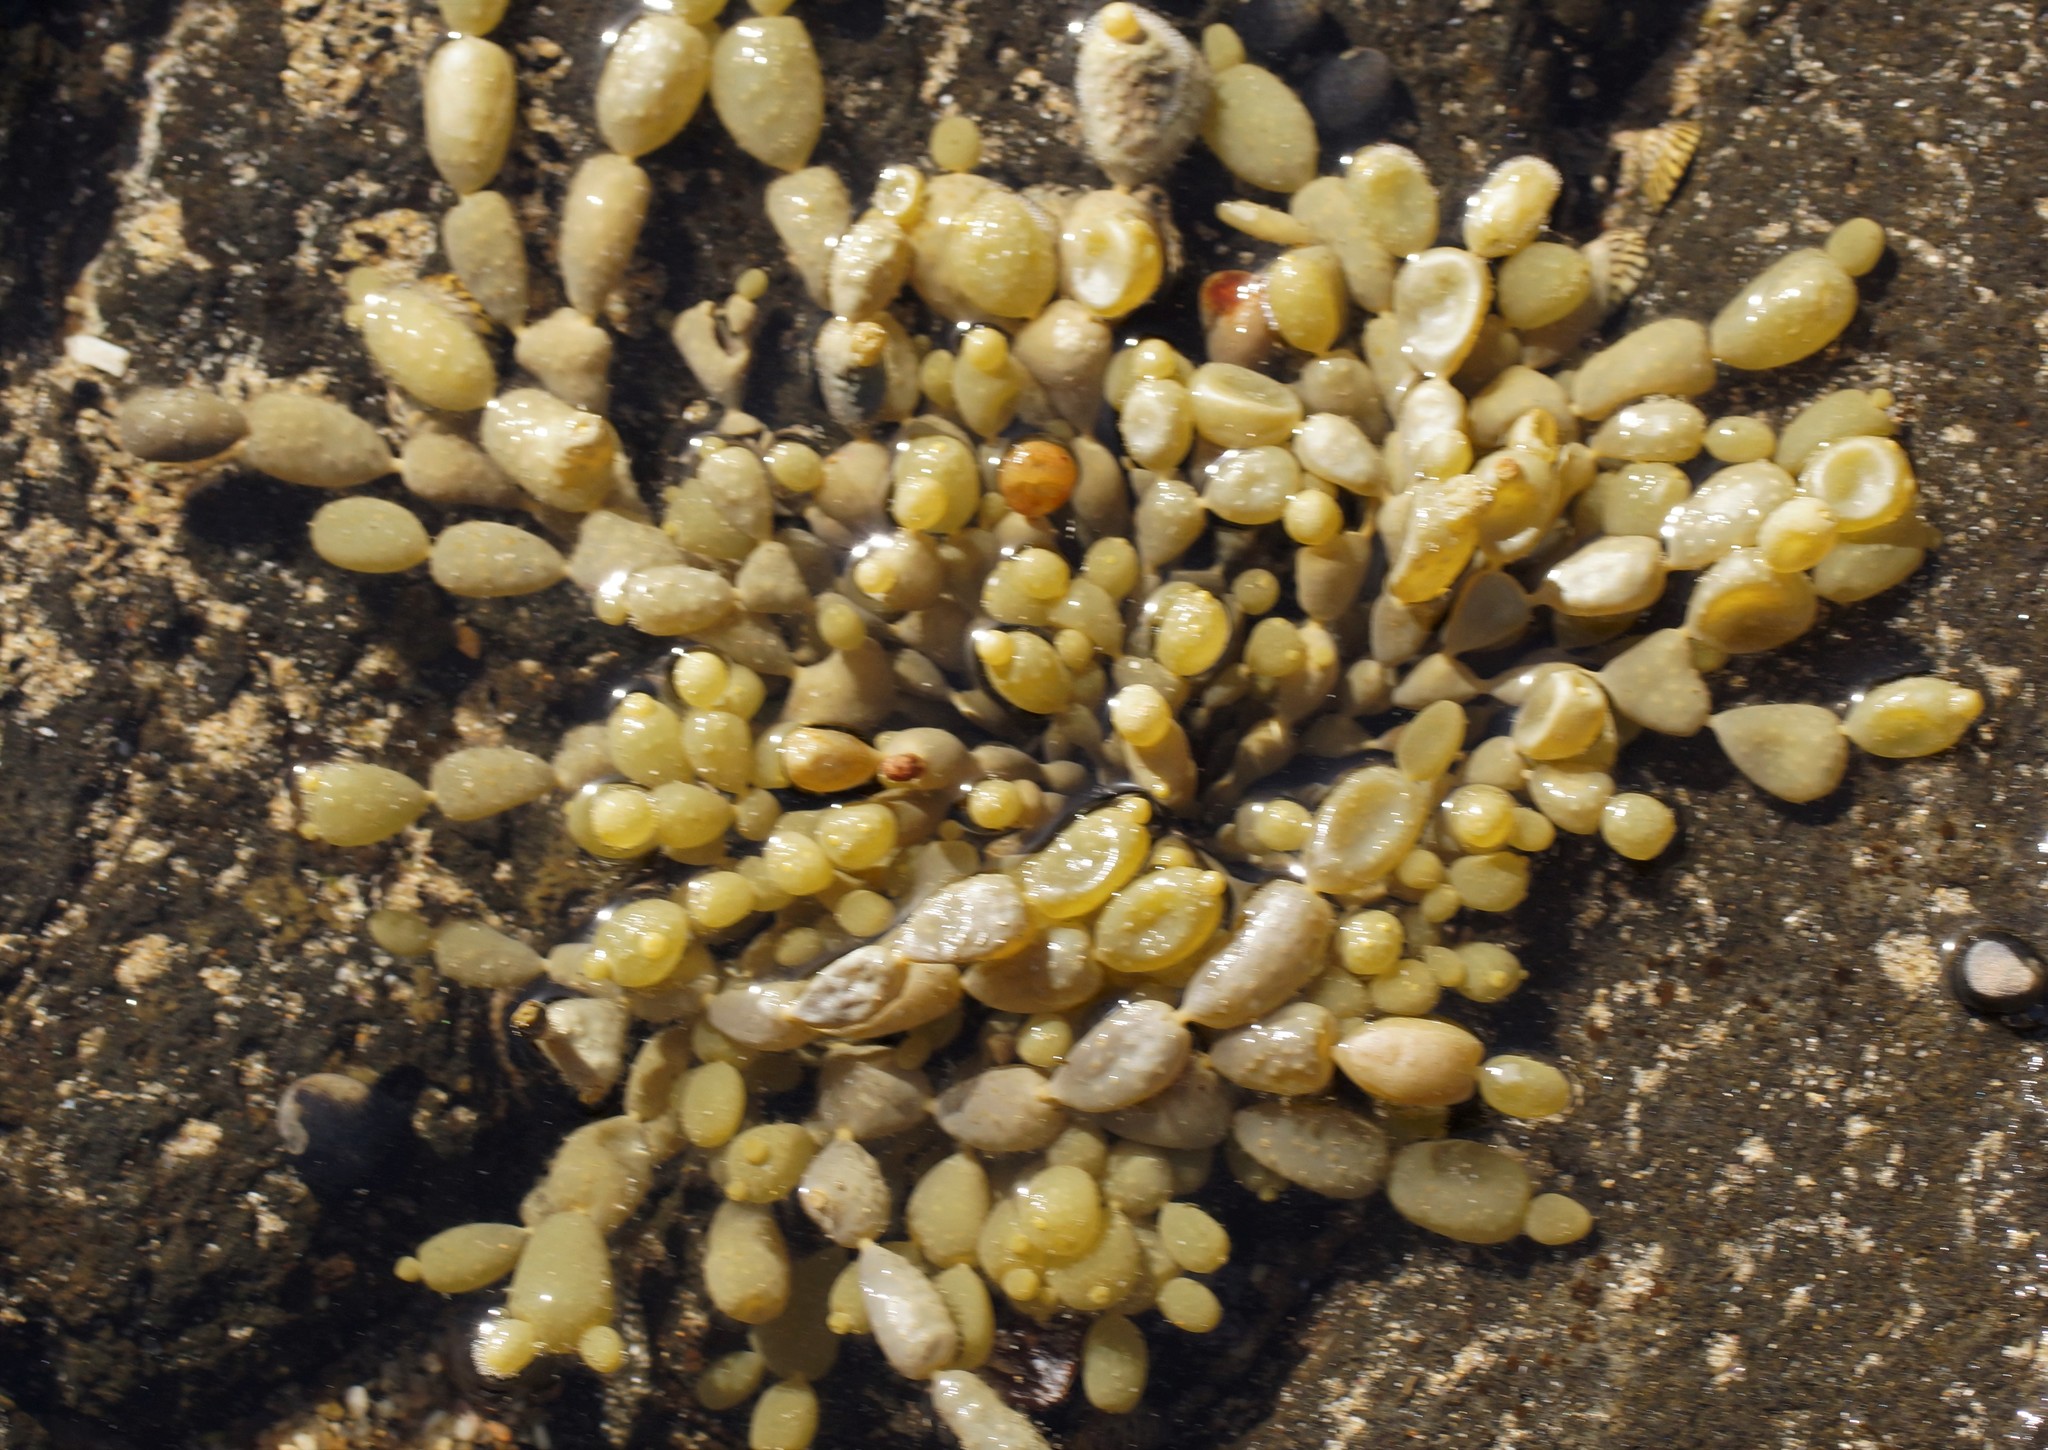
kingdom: Chromista
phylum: Ochrophyta
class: Phaeophyceae
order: Fucales
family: Hormosiraceae
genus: Hormosira
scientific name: Hormosira banksii
